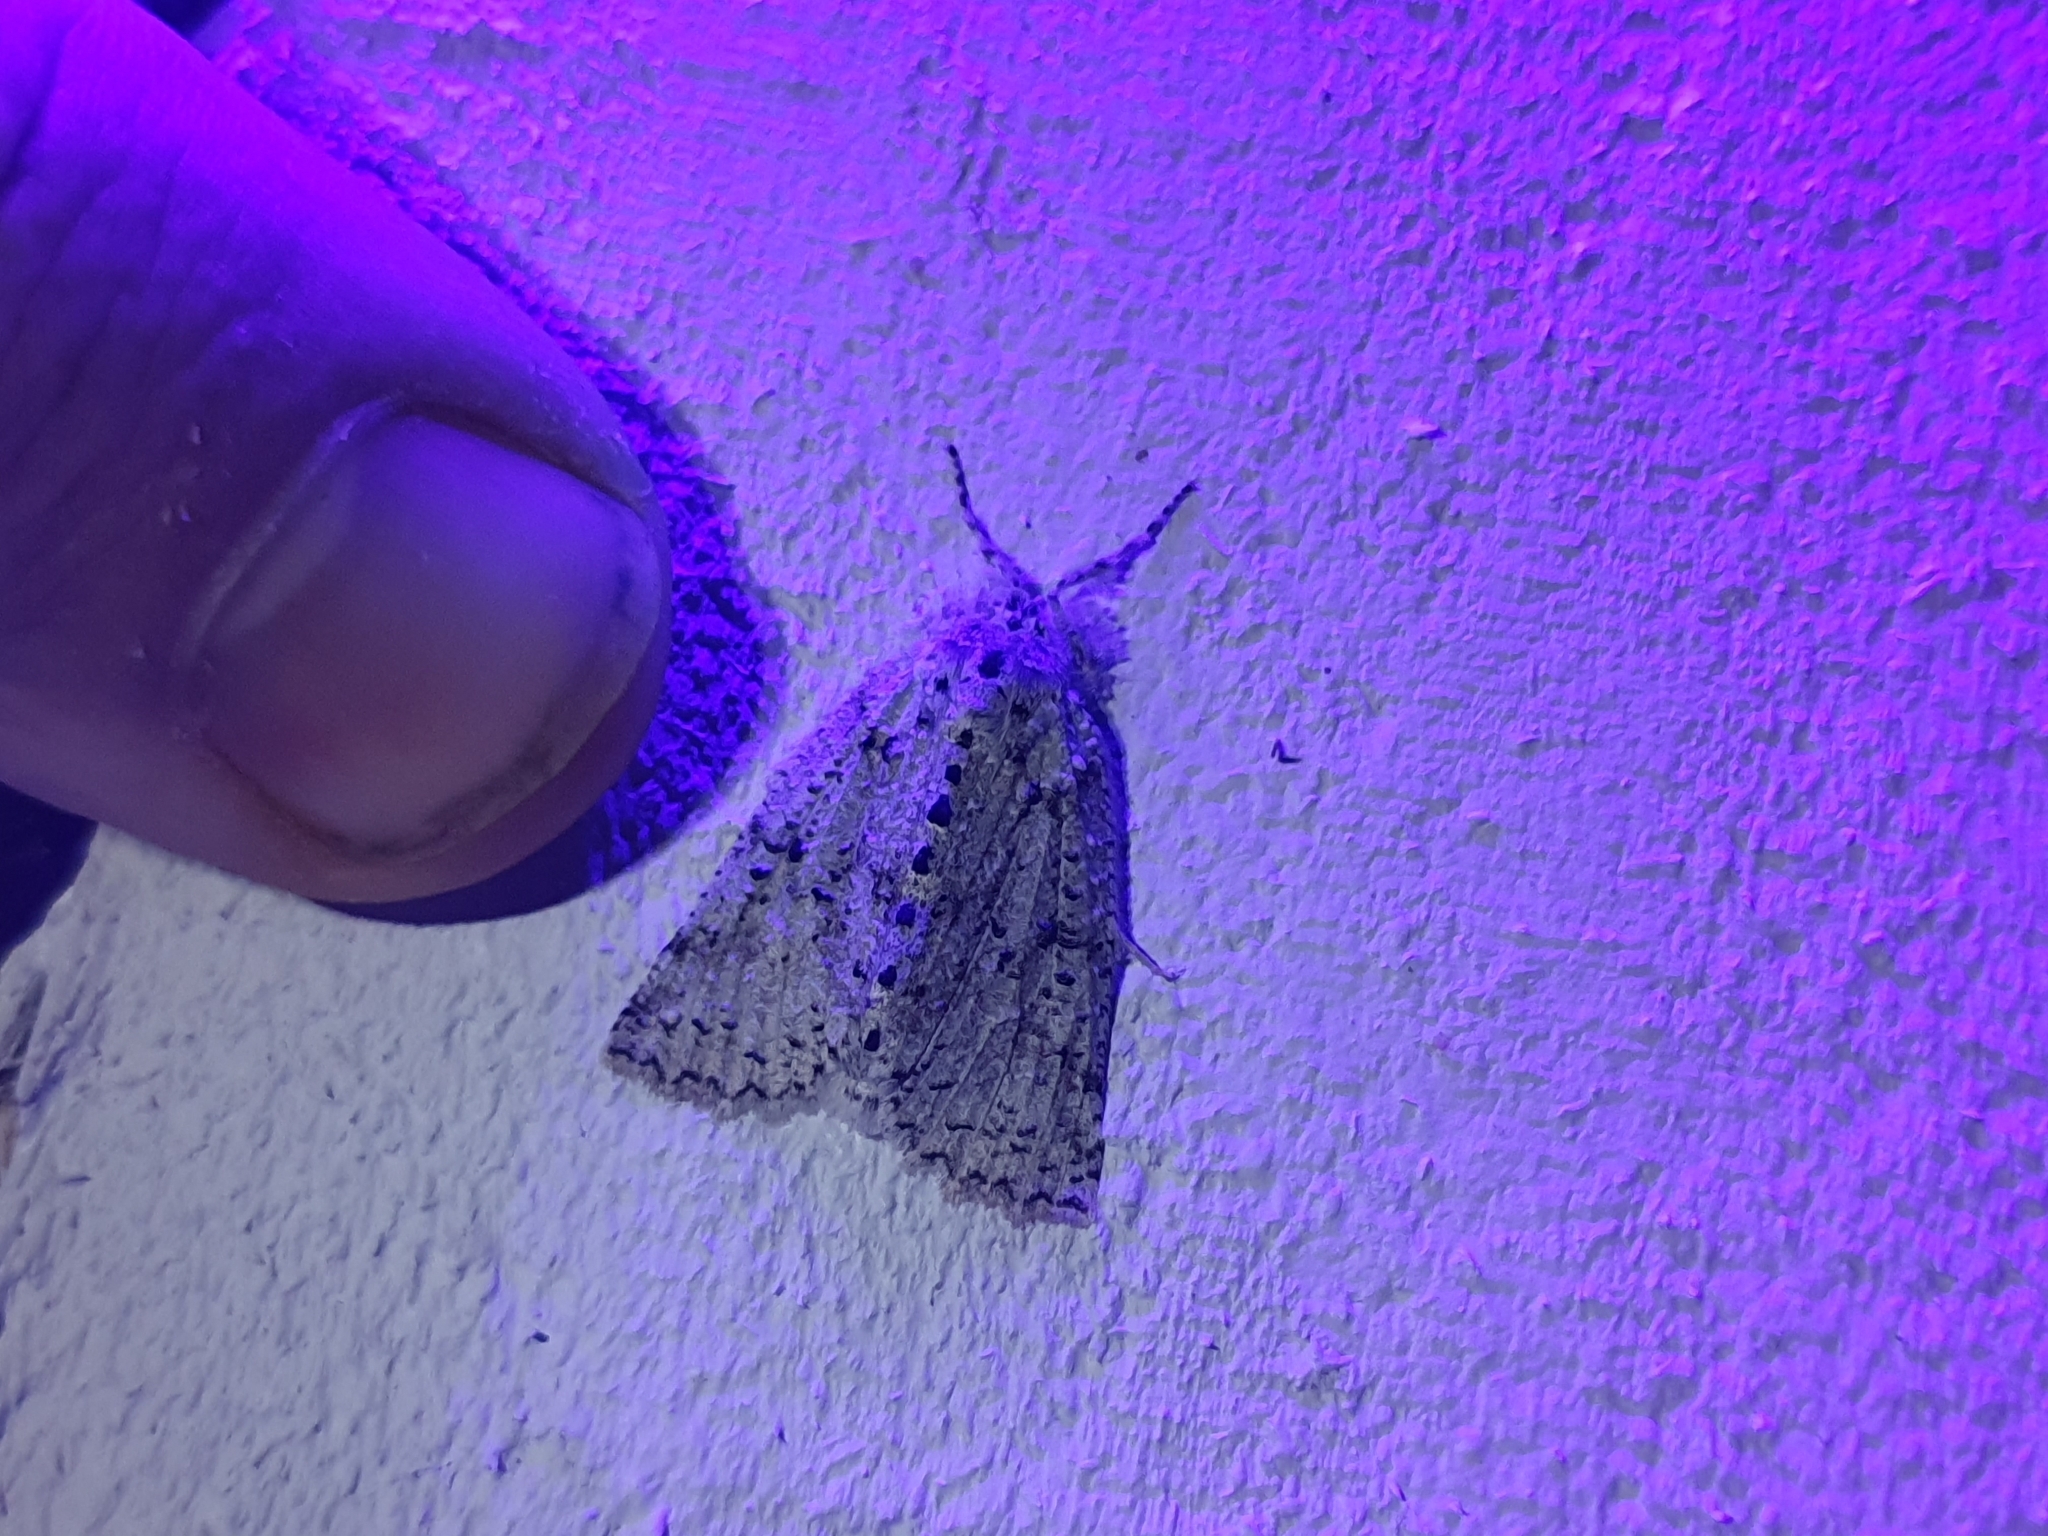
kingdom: Animalia
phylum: Arthropoda
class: Insecta
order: Lepidoptera
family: Geometridae
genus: Declana
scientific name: Declana floccosa
